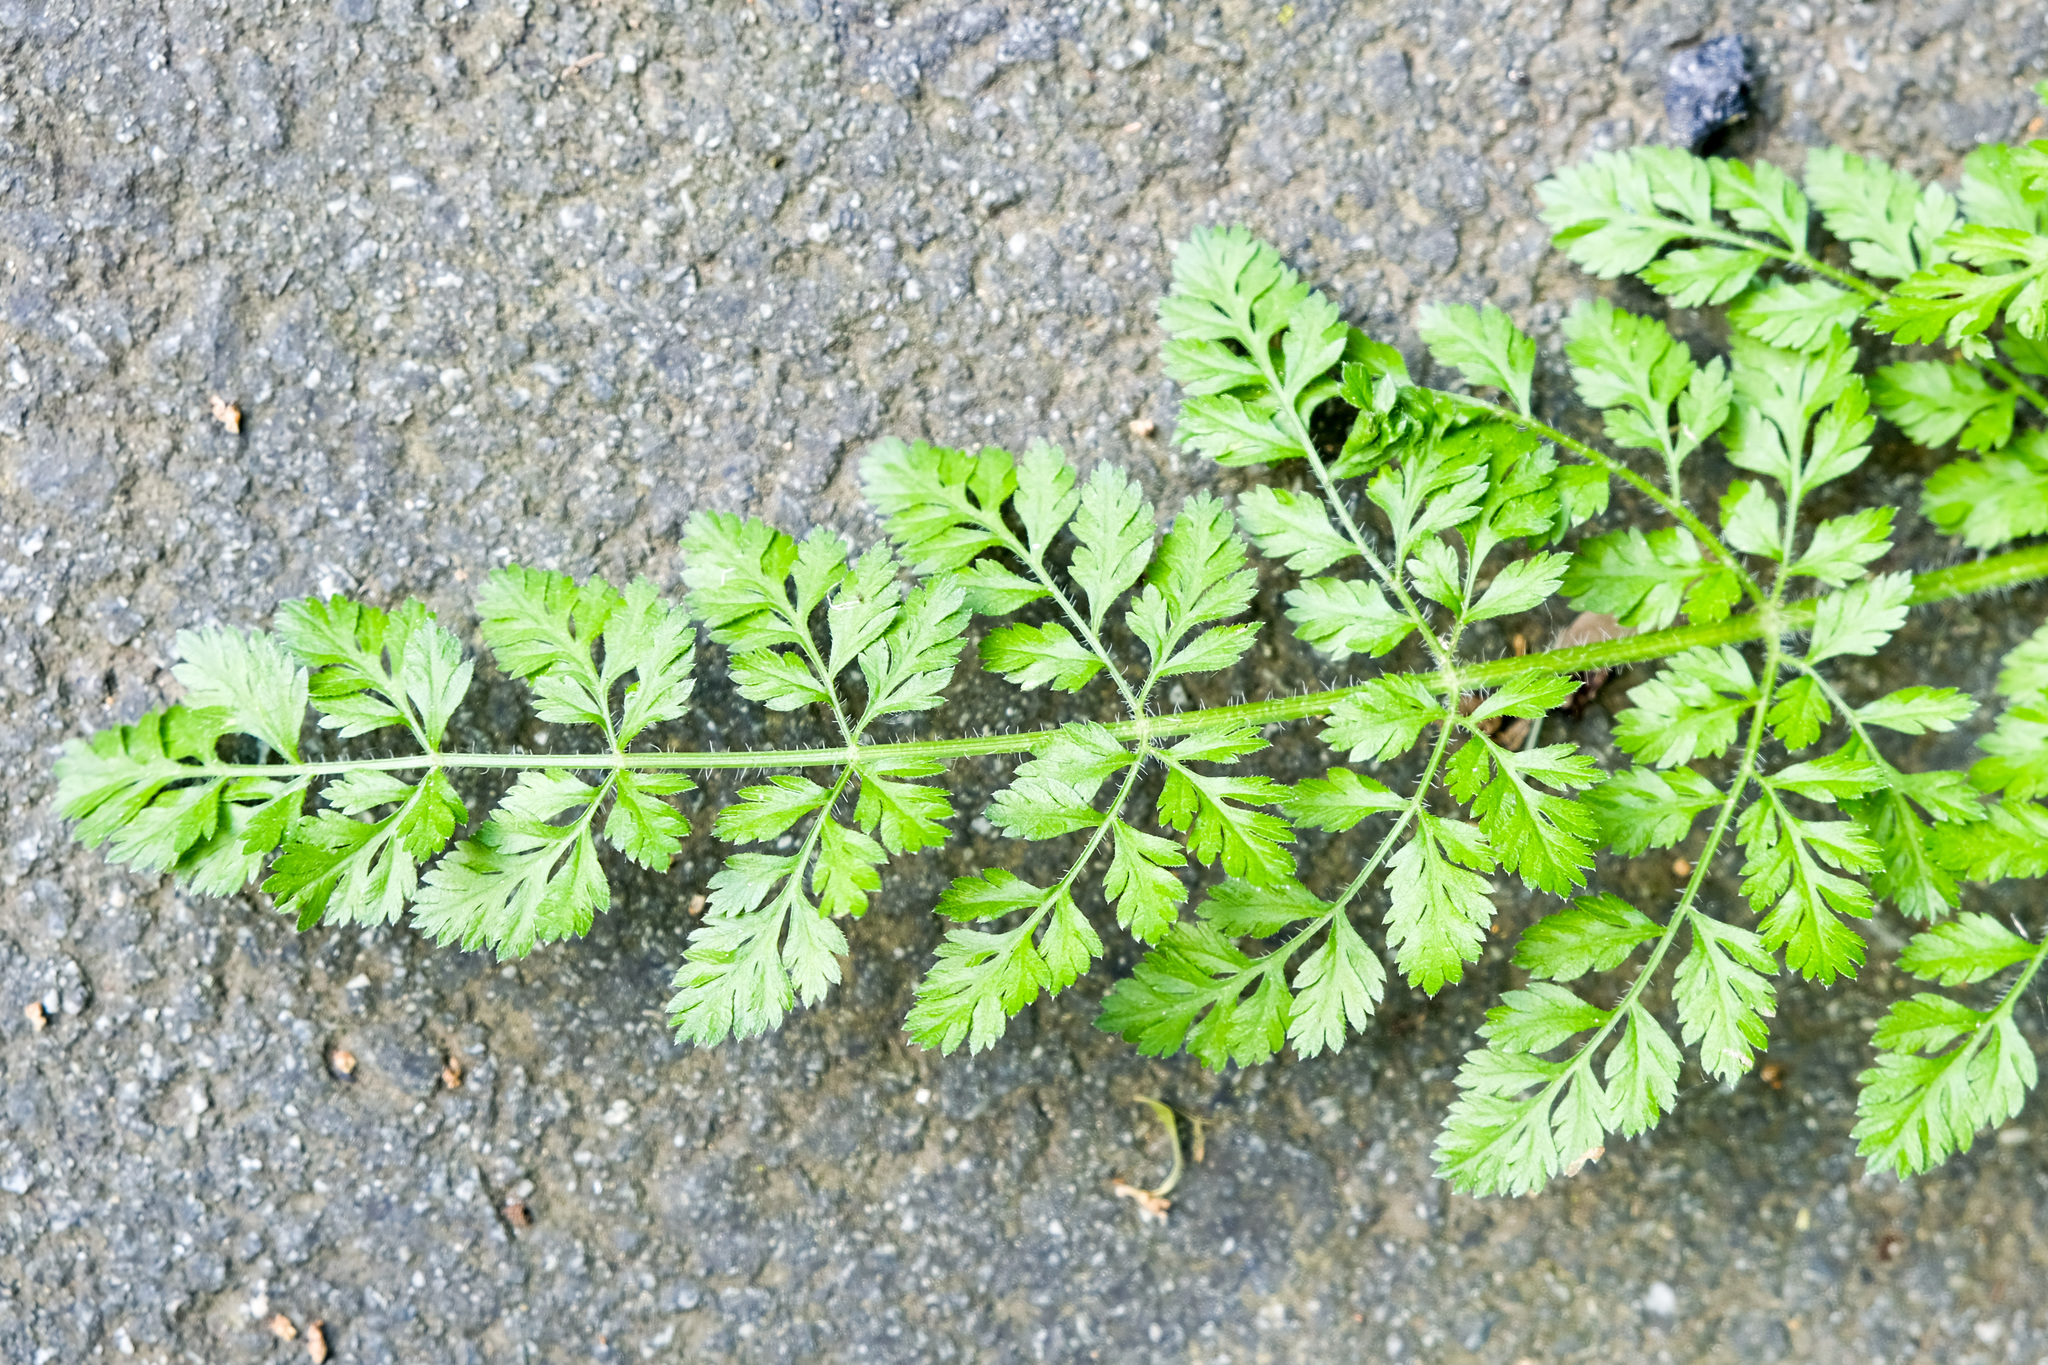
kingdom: Plantae
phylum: Tracheophyta
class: Magnoliopsida
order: Apiales
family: Apiaceae
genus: Daucus
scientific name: Daucus carota
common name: Wild carrot
